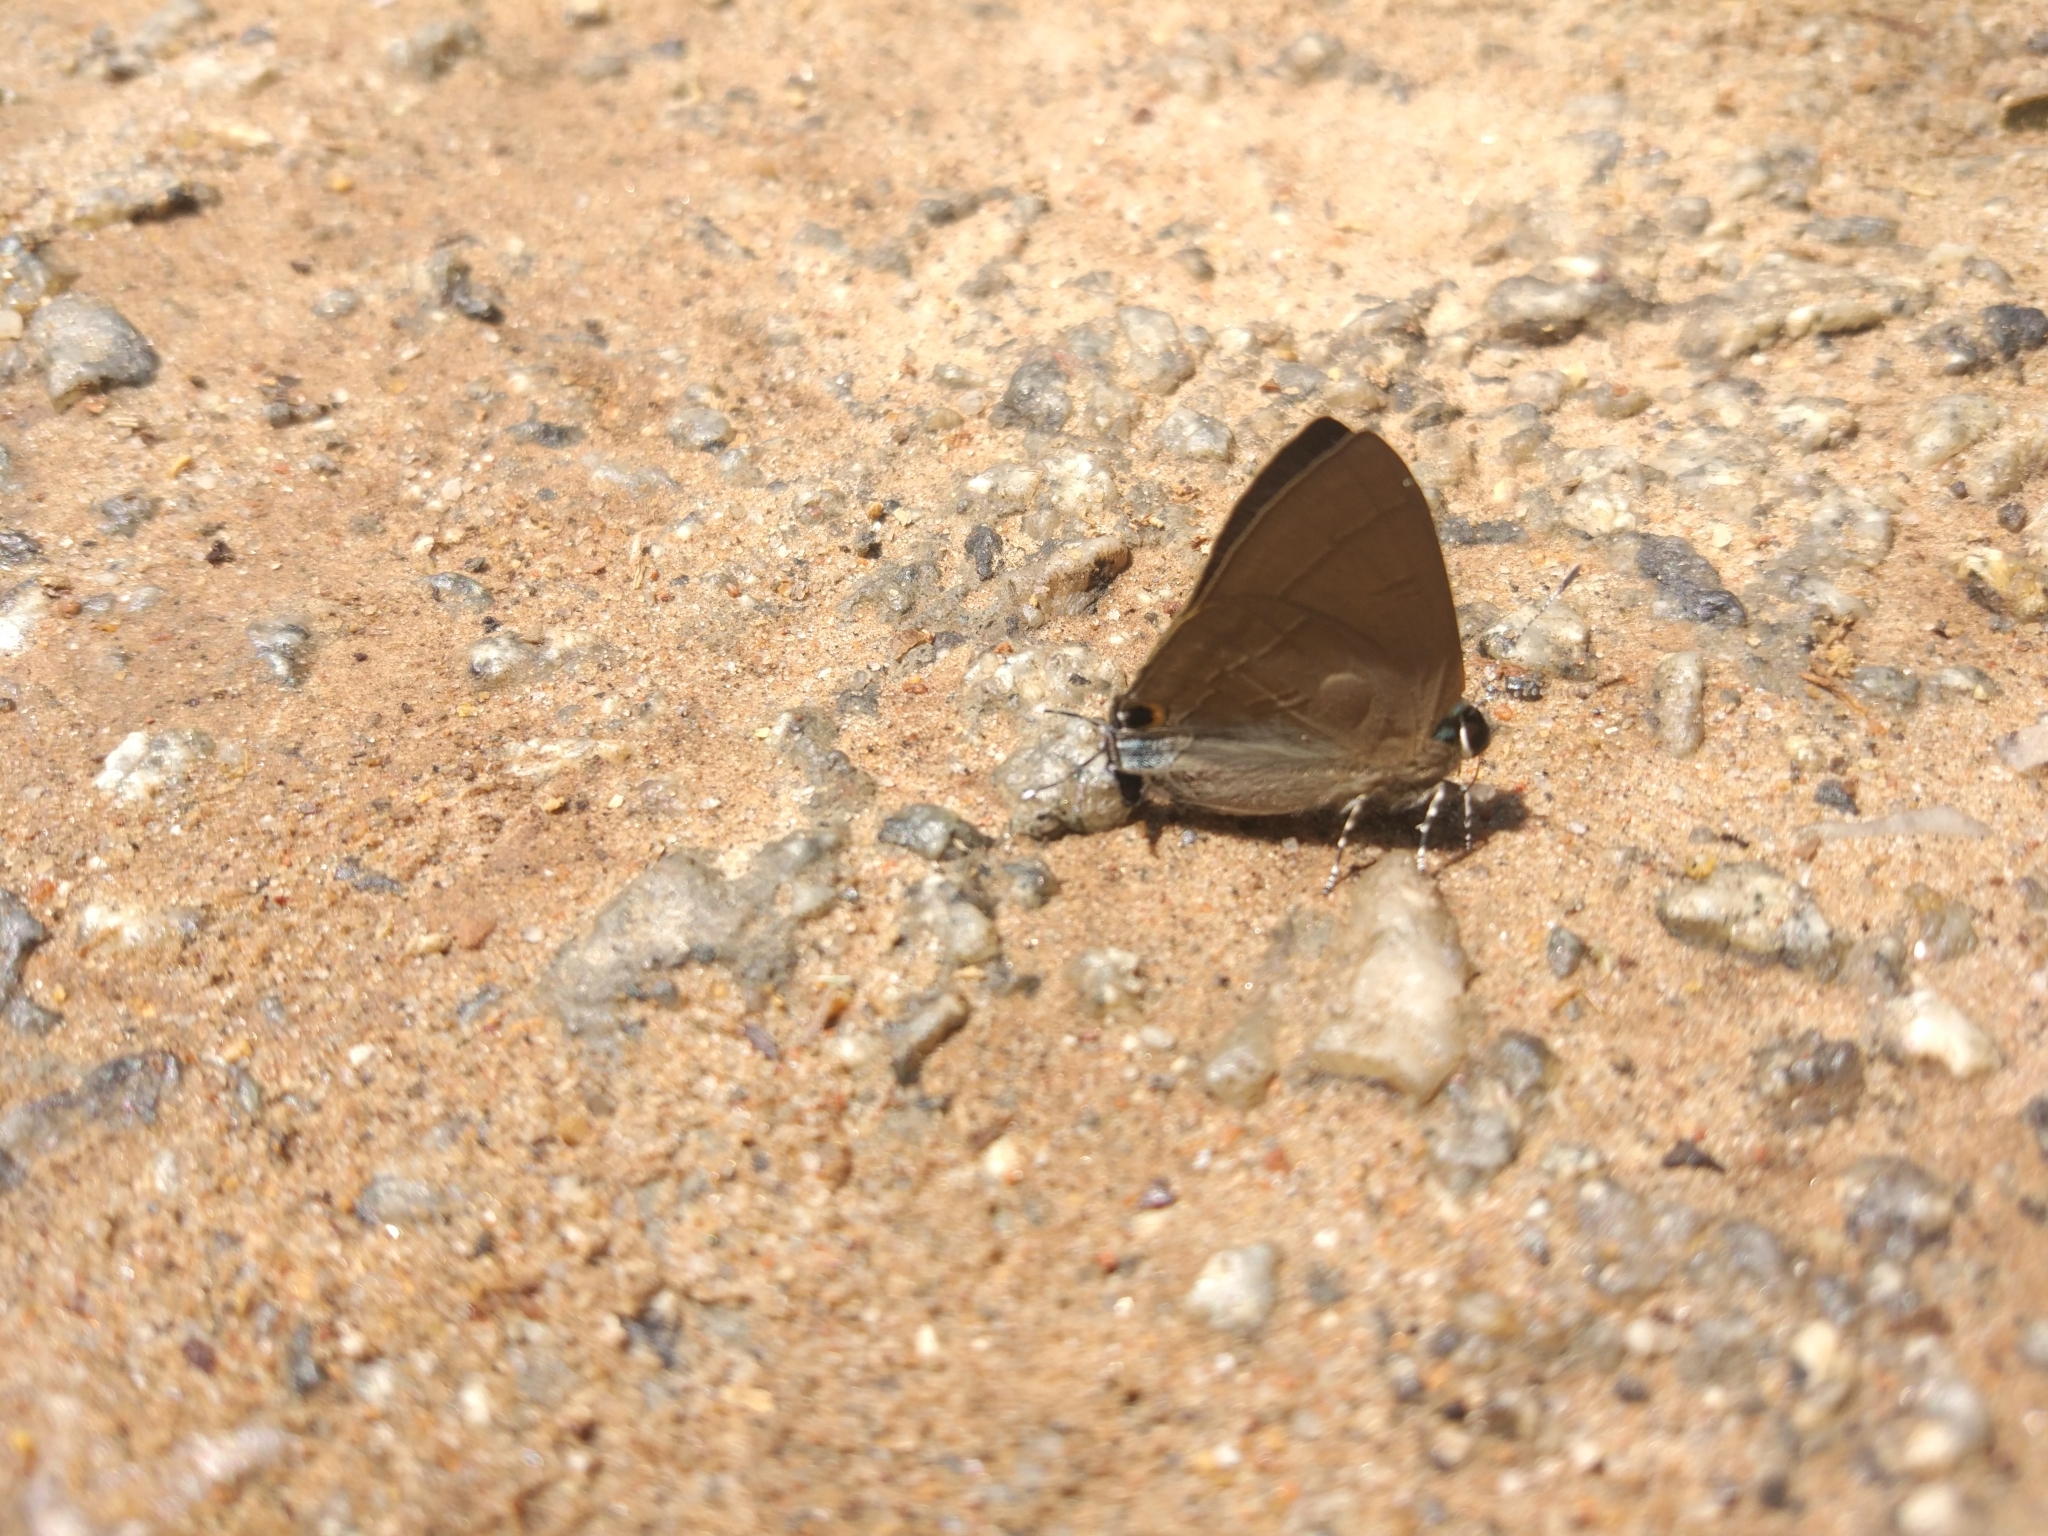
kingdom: Animalia
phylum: Arthropoda
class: Insecta
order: Lepidoptera
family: Lycaenidae
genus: Rapala
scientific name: Rapala iarbus
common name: Common red flash
